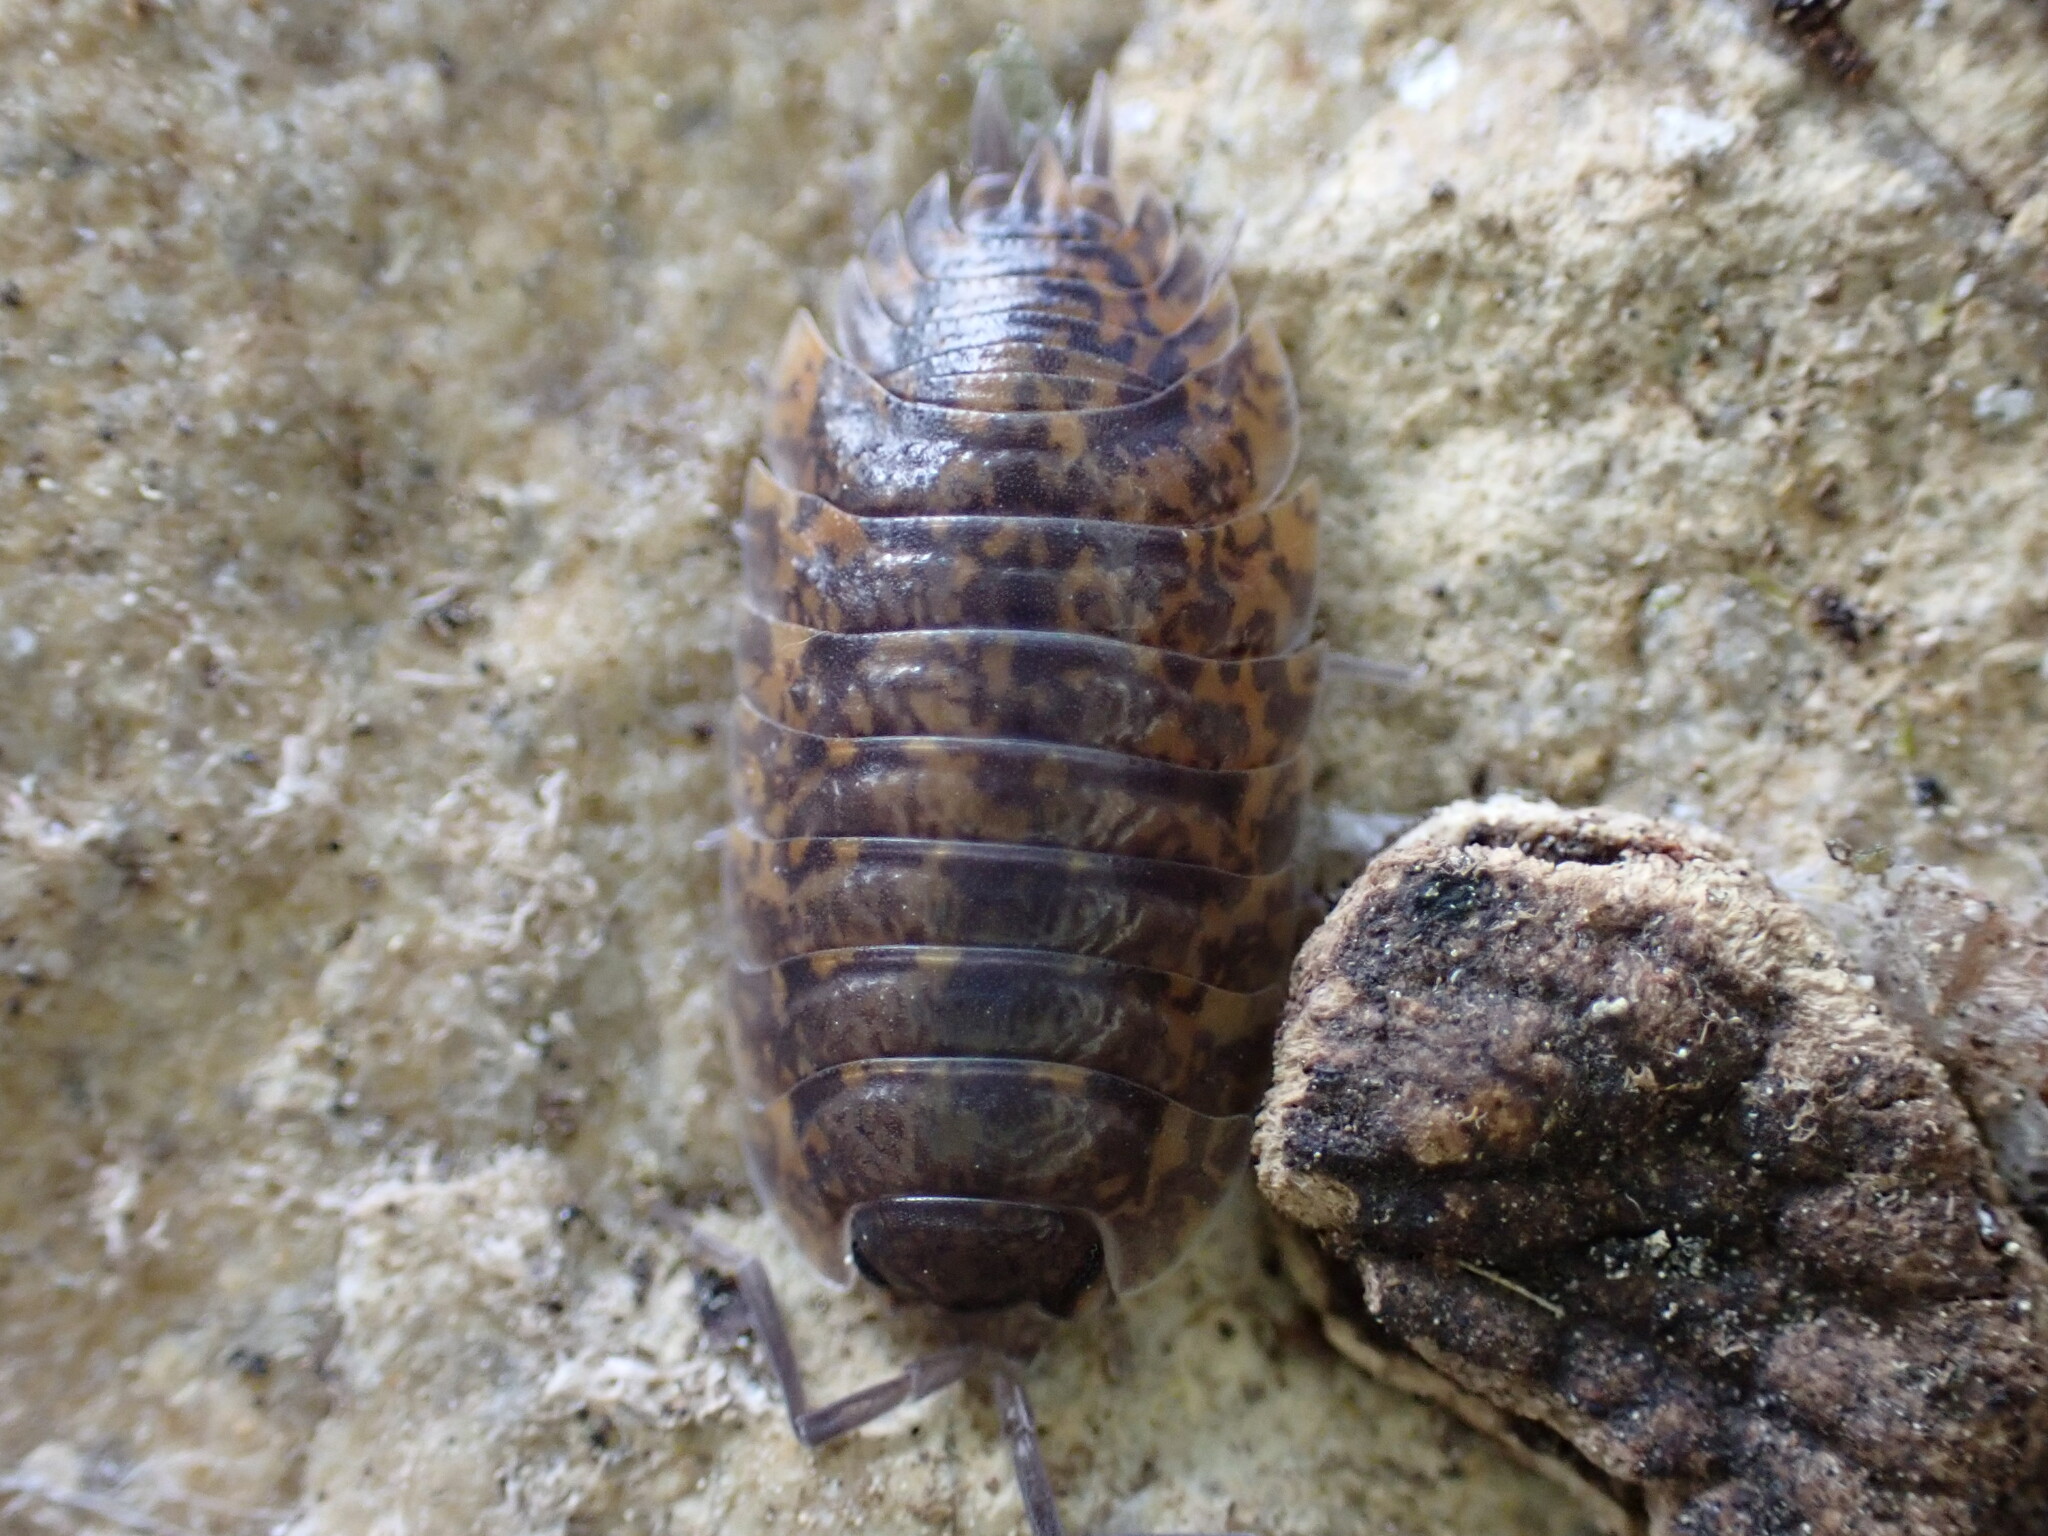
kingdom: Animalia
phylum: Arthropoda
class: Malacostraca
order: Isopoda
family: Porcellionidae
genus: Porcellio
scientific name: Porcellio orarum
